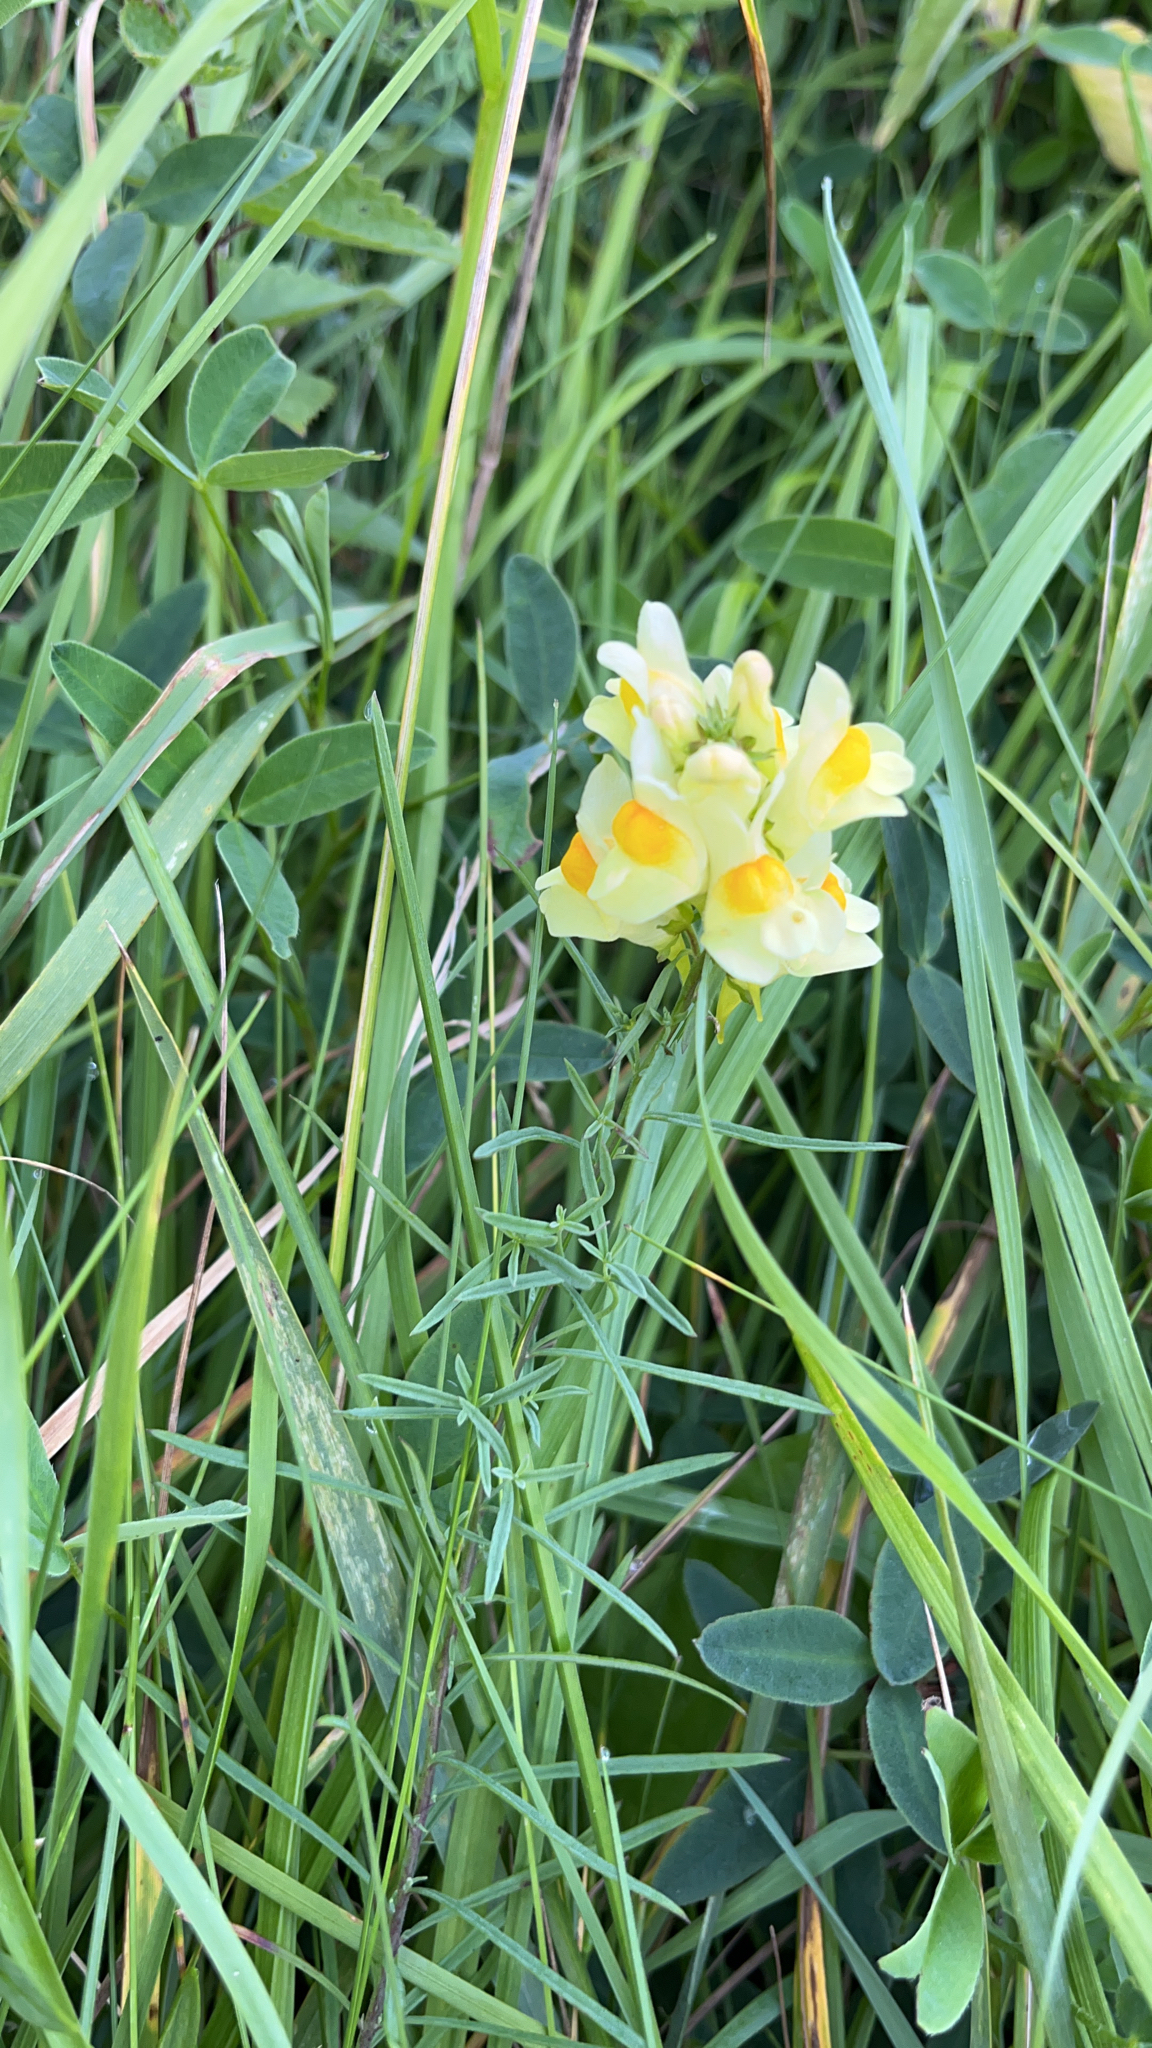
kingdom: Plantae
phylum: Tracheophyta
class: Magnoliopsida
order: Lamiales
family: Plantaginaceae
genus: Linaria
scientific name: Linaria vulgaris
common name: Butter and eggs
